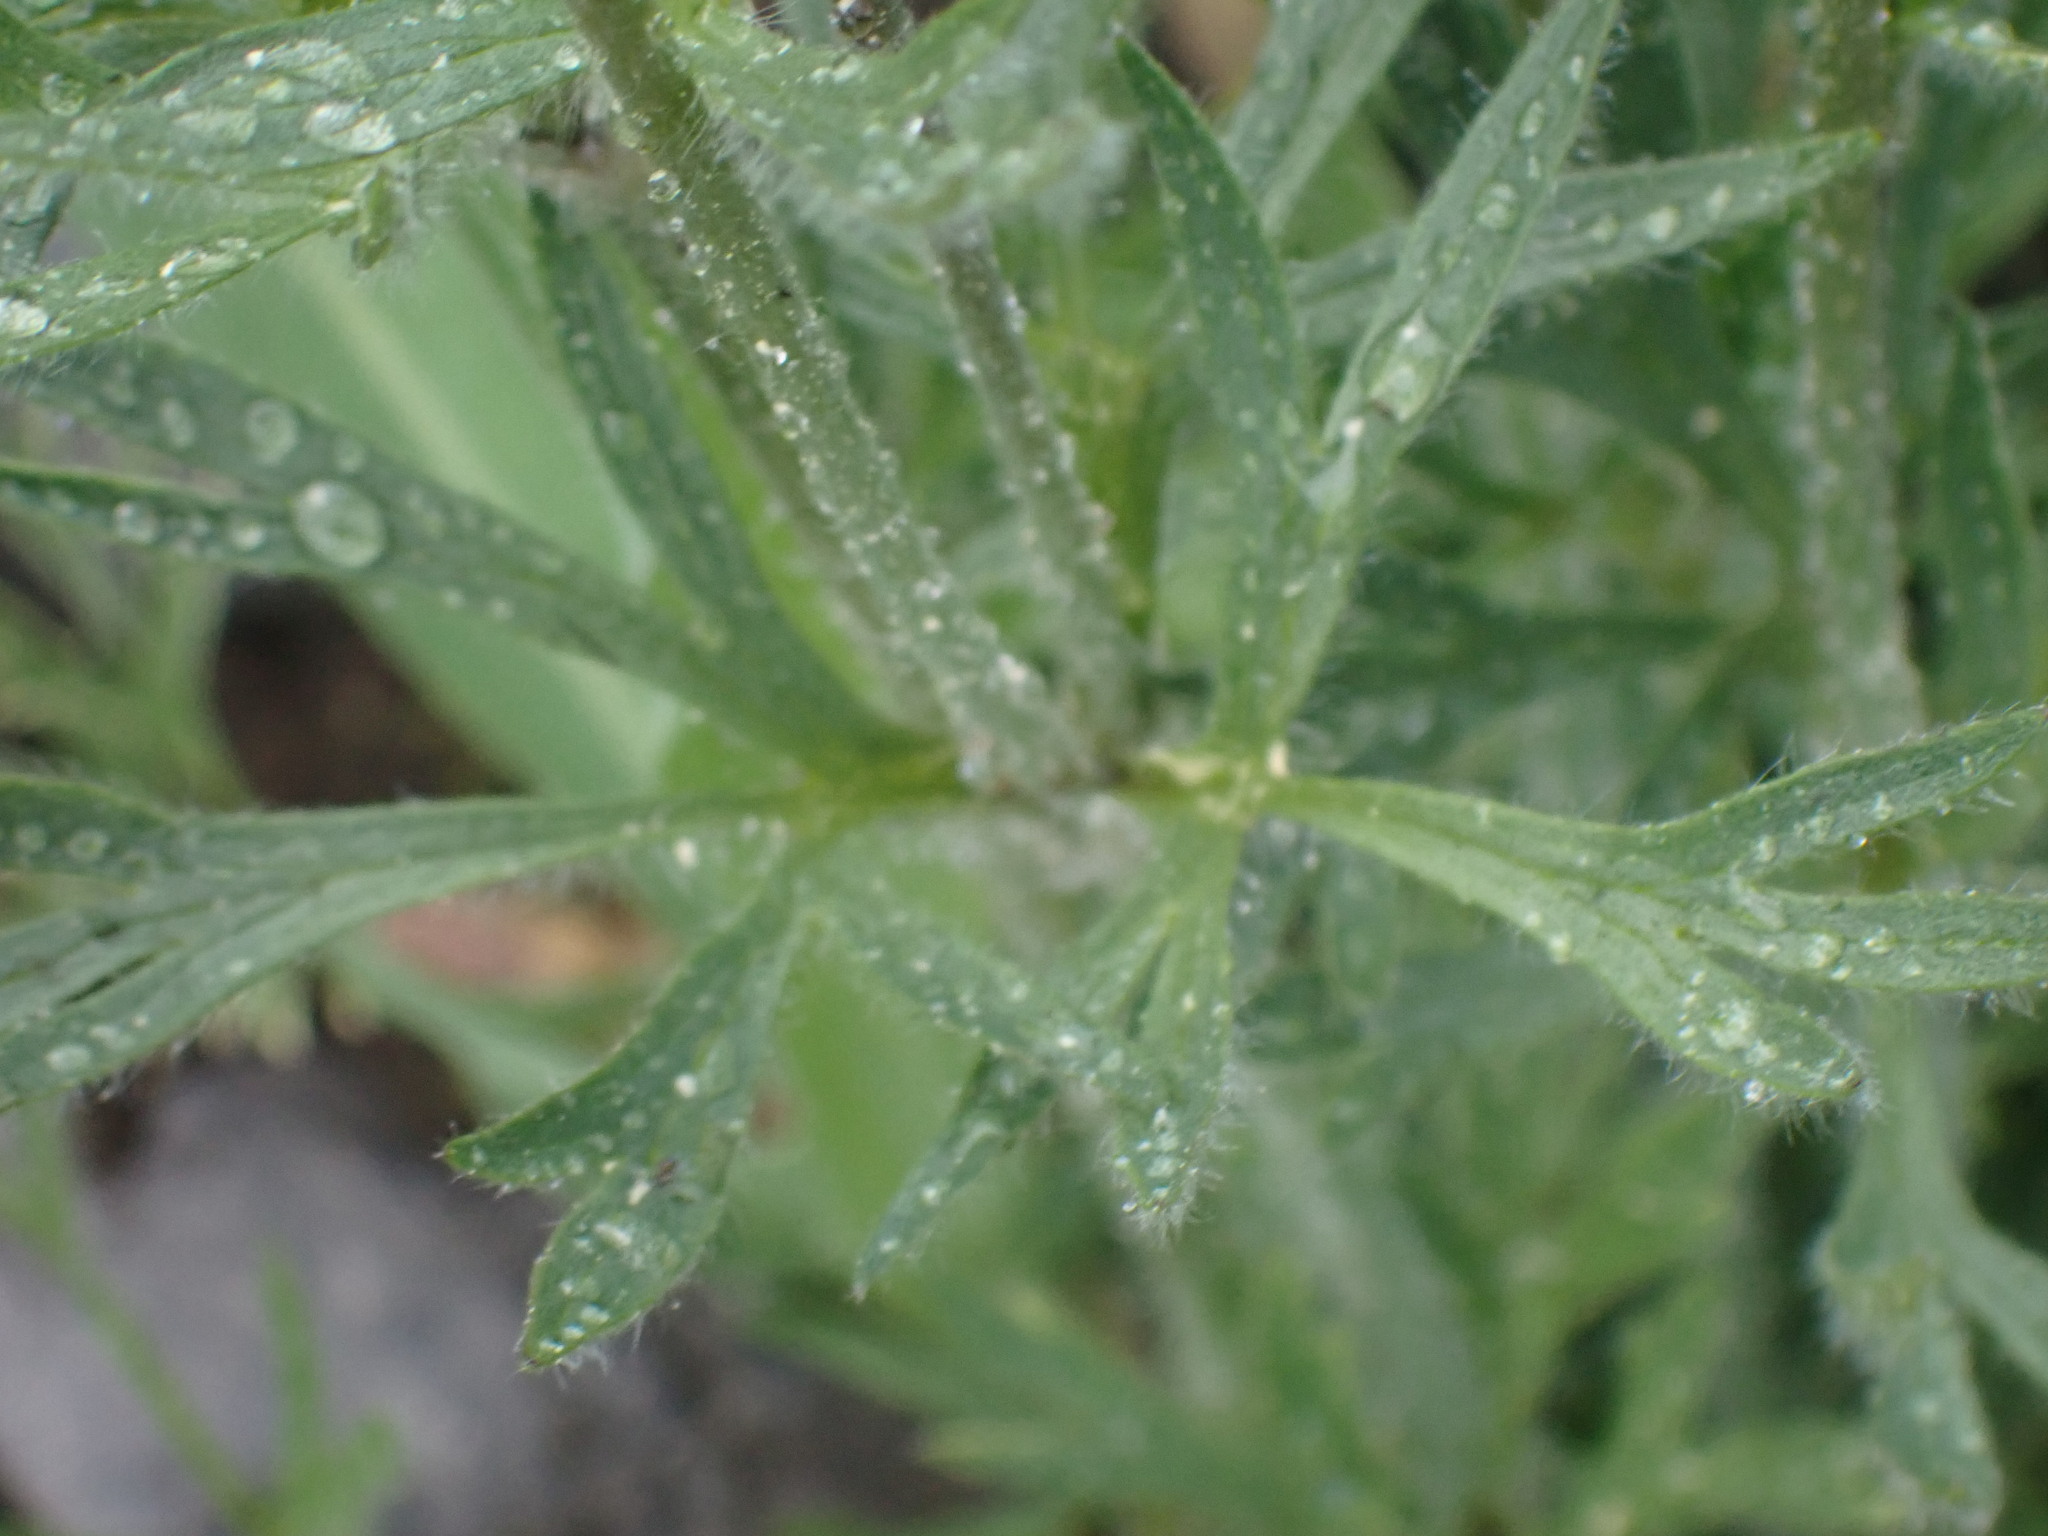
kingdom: Plantae
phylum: Tracheophyta
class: Magnoliopsida
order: Ranunculales
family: Ranunculaceae
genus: Anemone
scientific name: Anemone multifida
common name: Bird's-foot anemone
